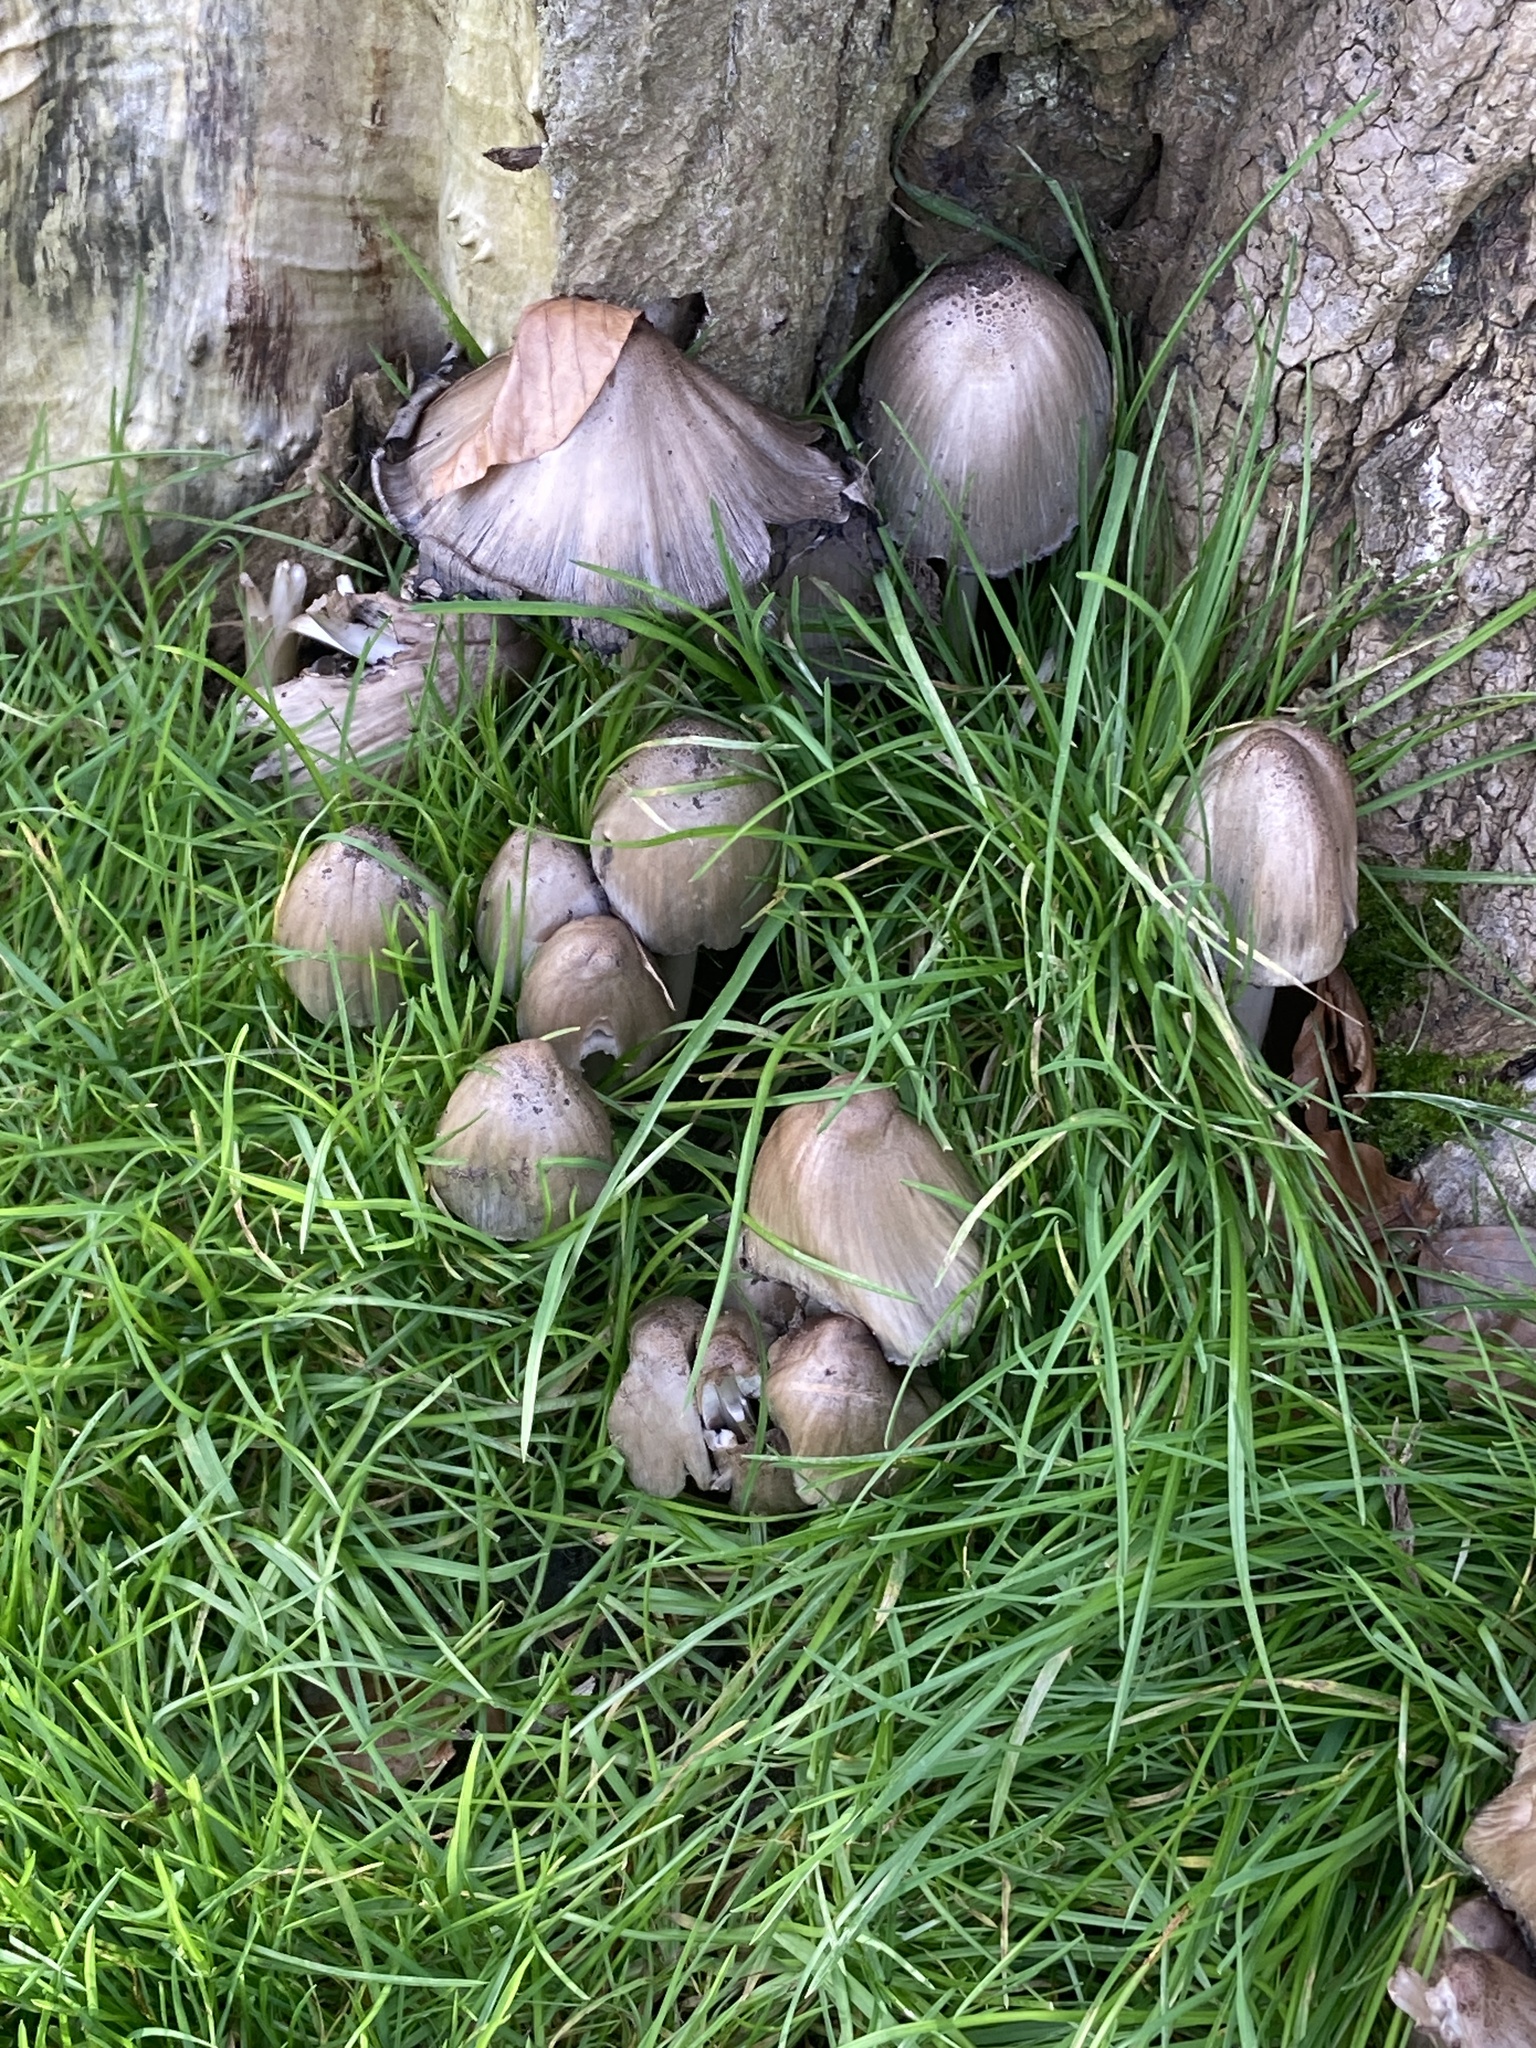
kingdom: Fungi
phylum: Basidiomycota
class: Agaricomycetes
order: Agaricales
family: Psathyrellaceae
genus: Coprinopsis
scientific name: Coprinopsis atramentaria
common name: Common ink-cap
